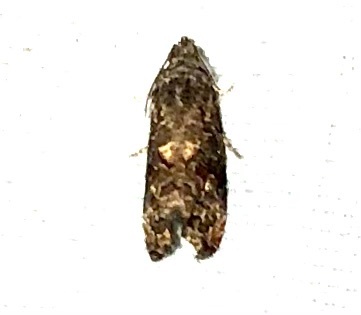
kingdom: Animalia
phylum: Arthropoda
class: Insecta
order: Lepidoptera
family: Tortricidae
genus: Endothenia
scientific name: Endothenia hebesana
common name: Verbena bud moth
